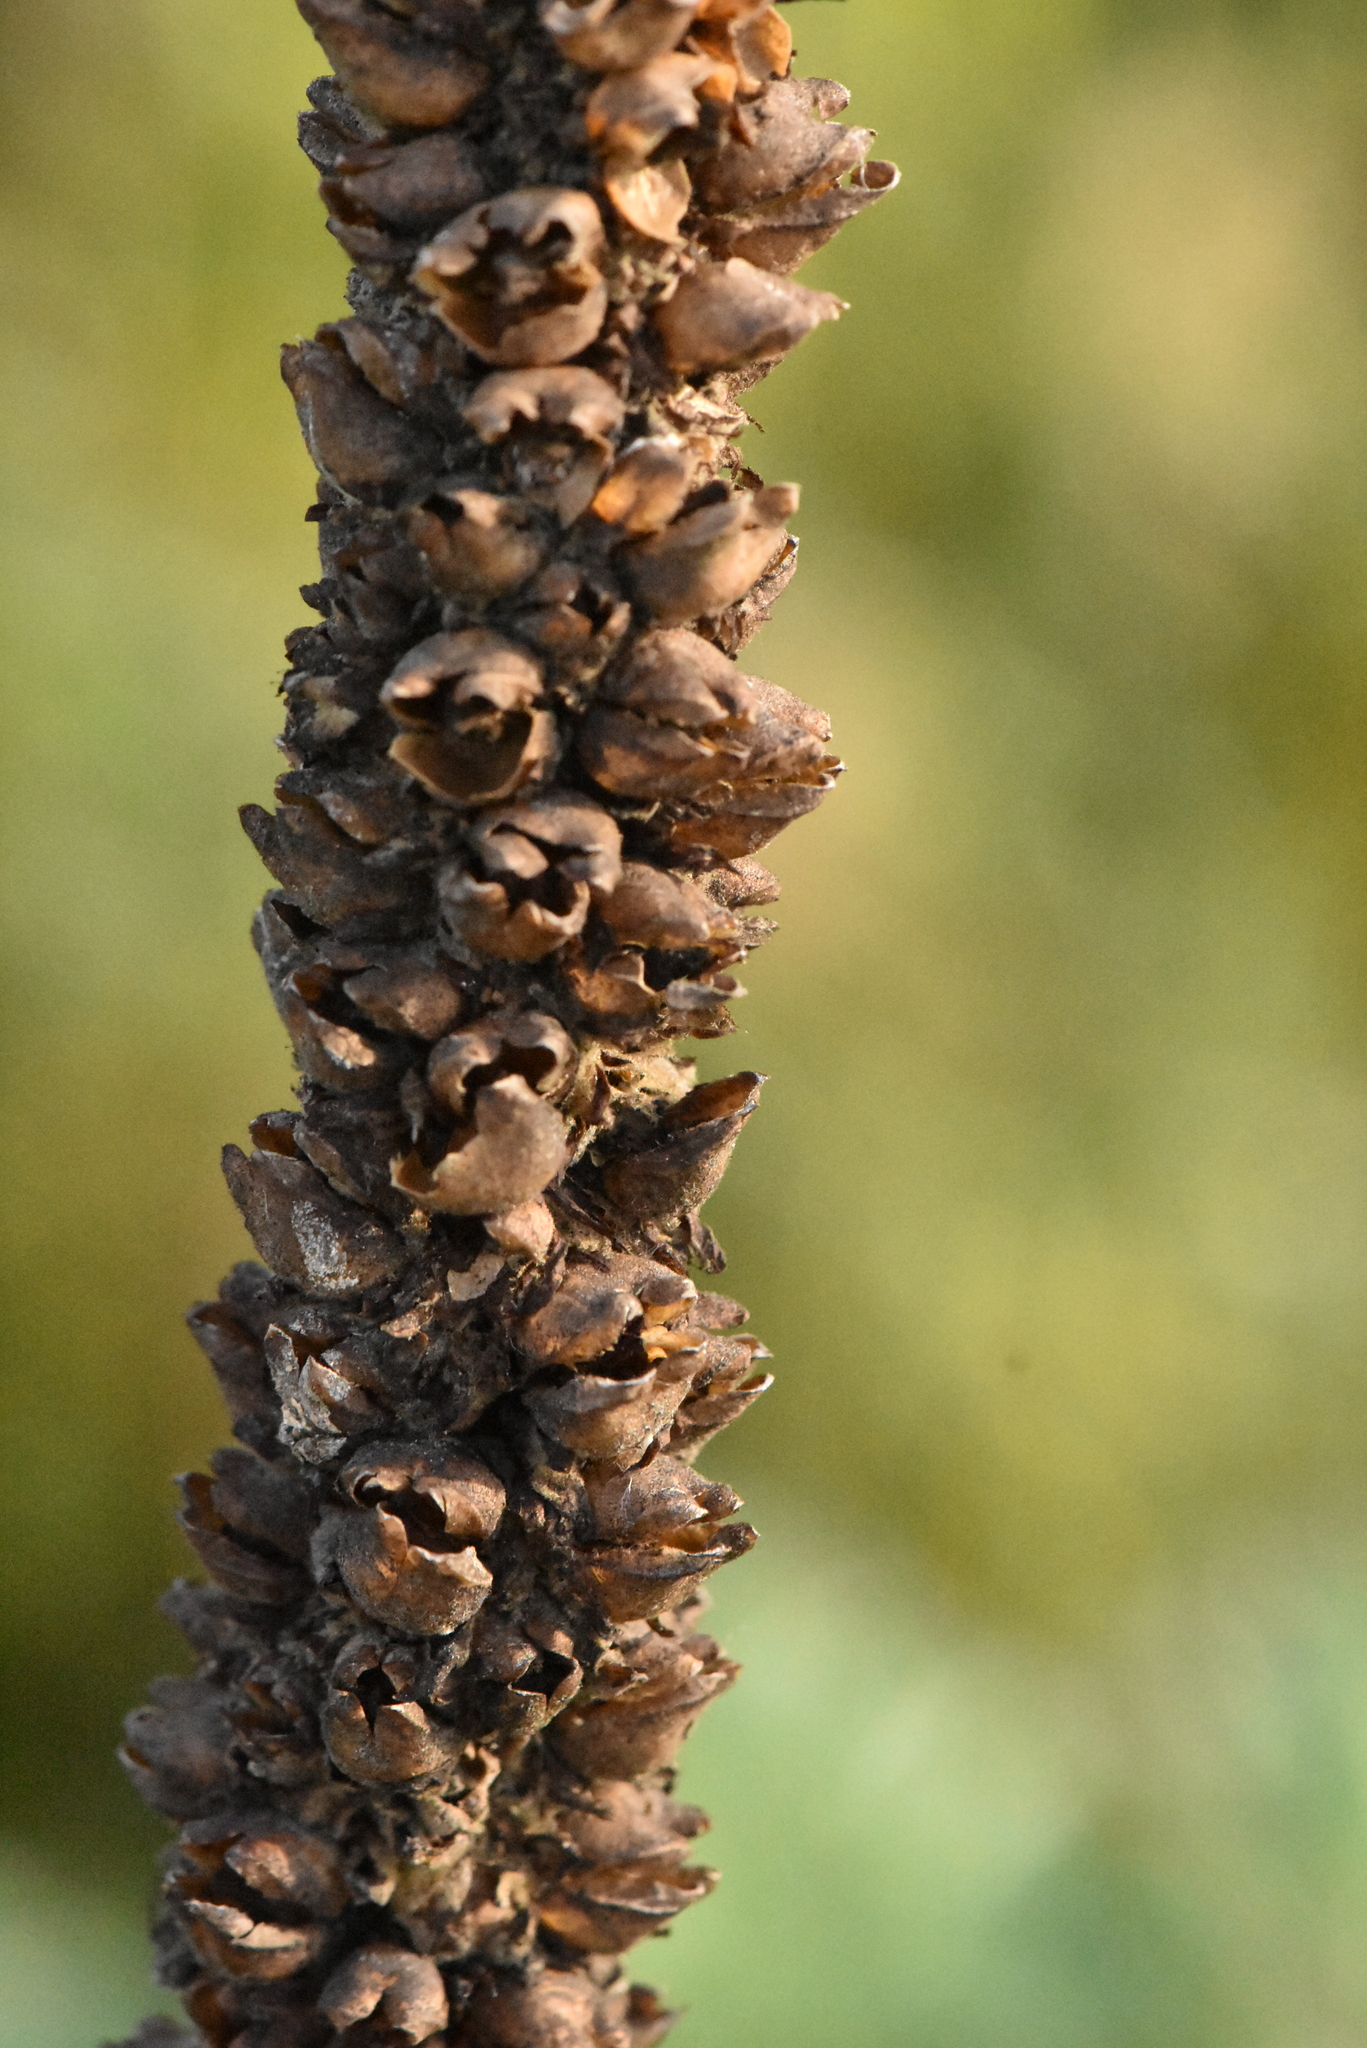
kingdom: Plantae
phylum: Tracheophyta
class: Magnoliopsida
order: Lamiales
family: Scrophulariaceae
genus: Verbascum
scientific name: Verbascum thapsus
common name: Common mullein
